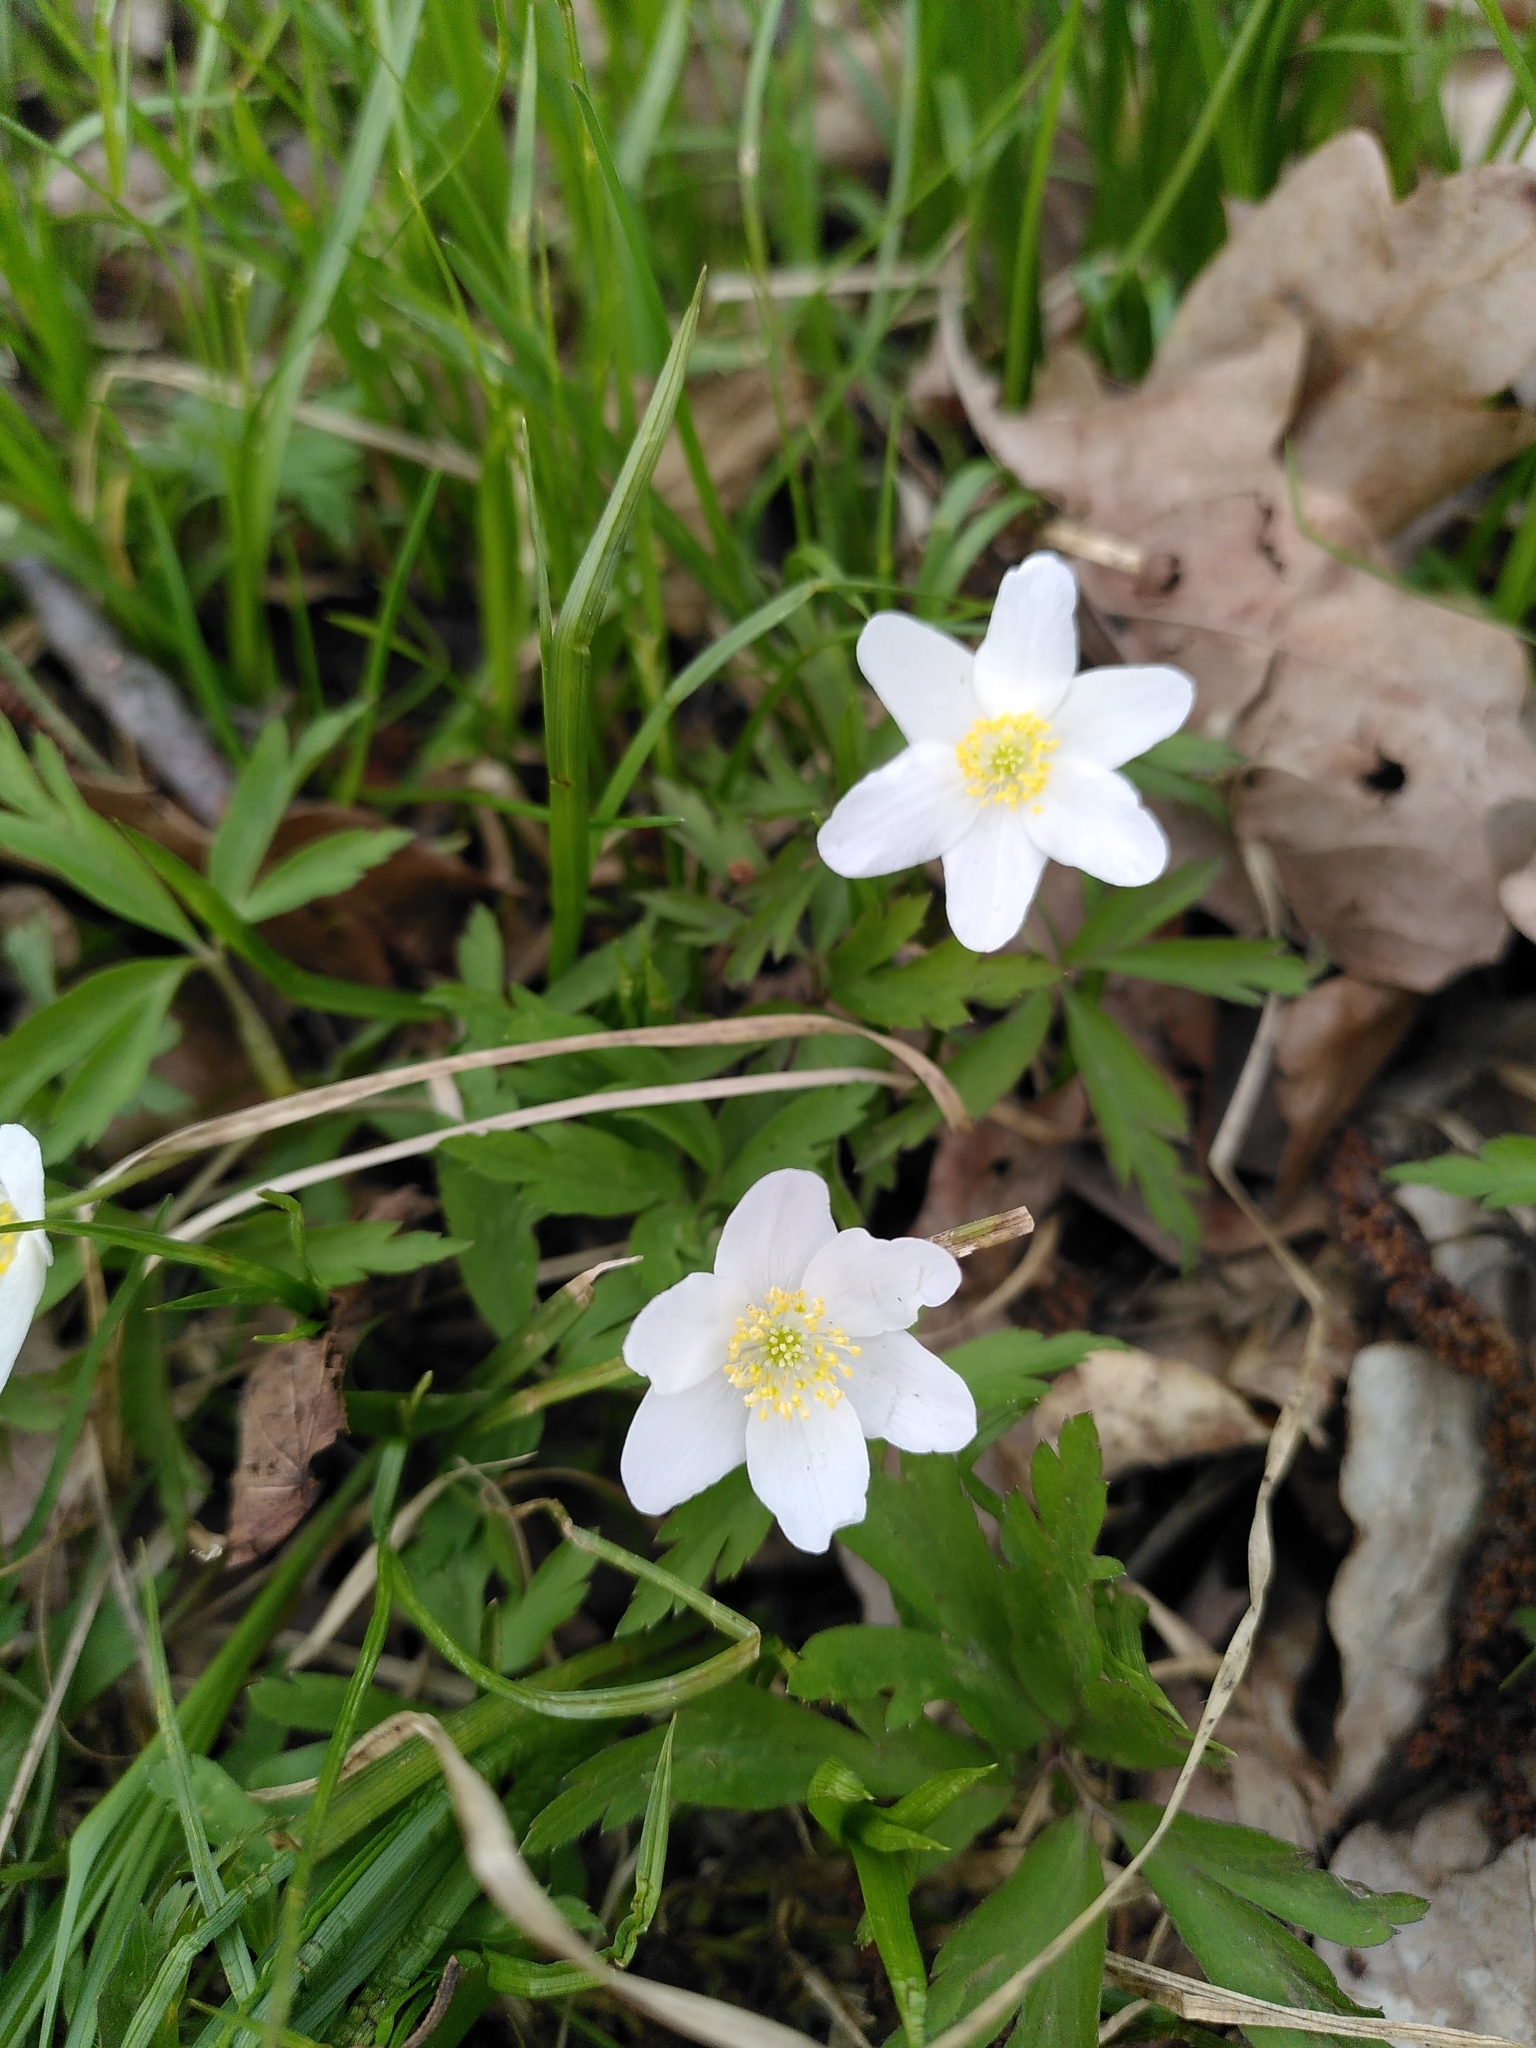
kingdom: Plantae
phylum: Tracheophyta
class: Magnoliopsida
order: Ranunculales
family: Ranunculaceae
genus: Anemone
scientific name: Anemone nemorosa
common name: Wood anemone
